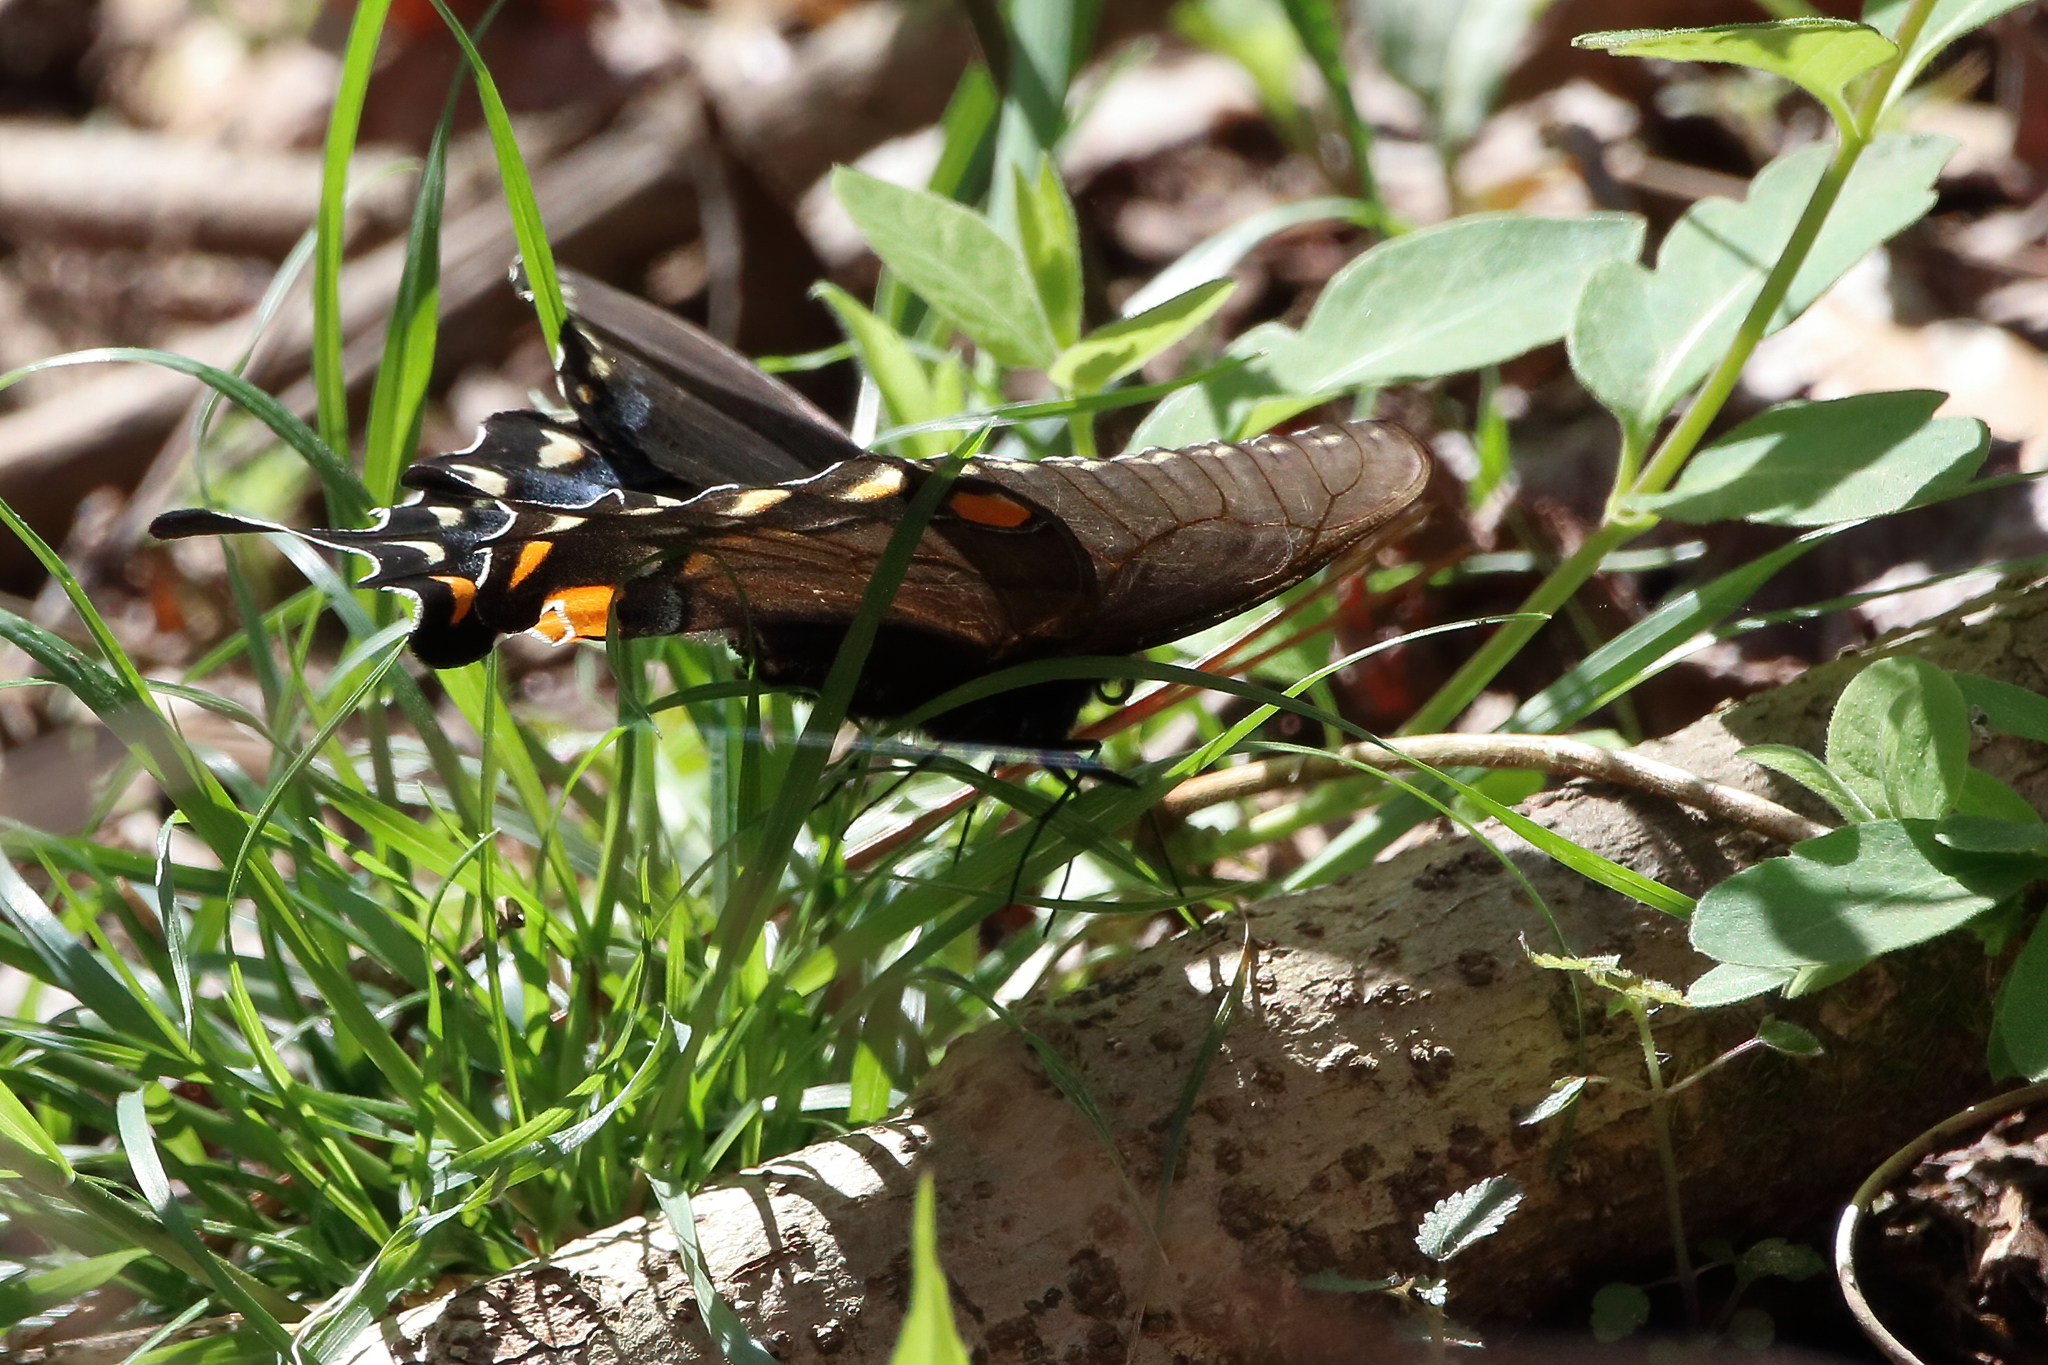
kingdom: Animalia
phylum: Arthropoda
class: Insecta
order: Lepidoptera
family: Papilionidae
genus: Papilio
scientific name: Papilio glaucus
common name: Tiger swallowtail
